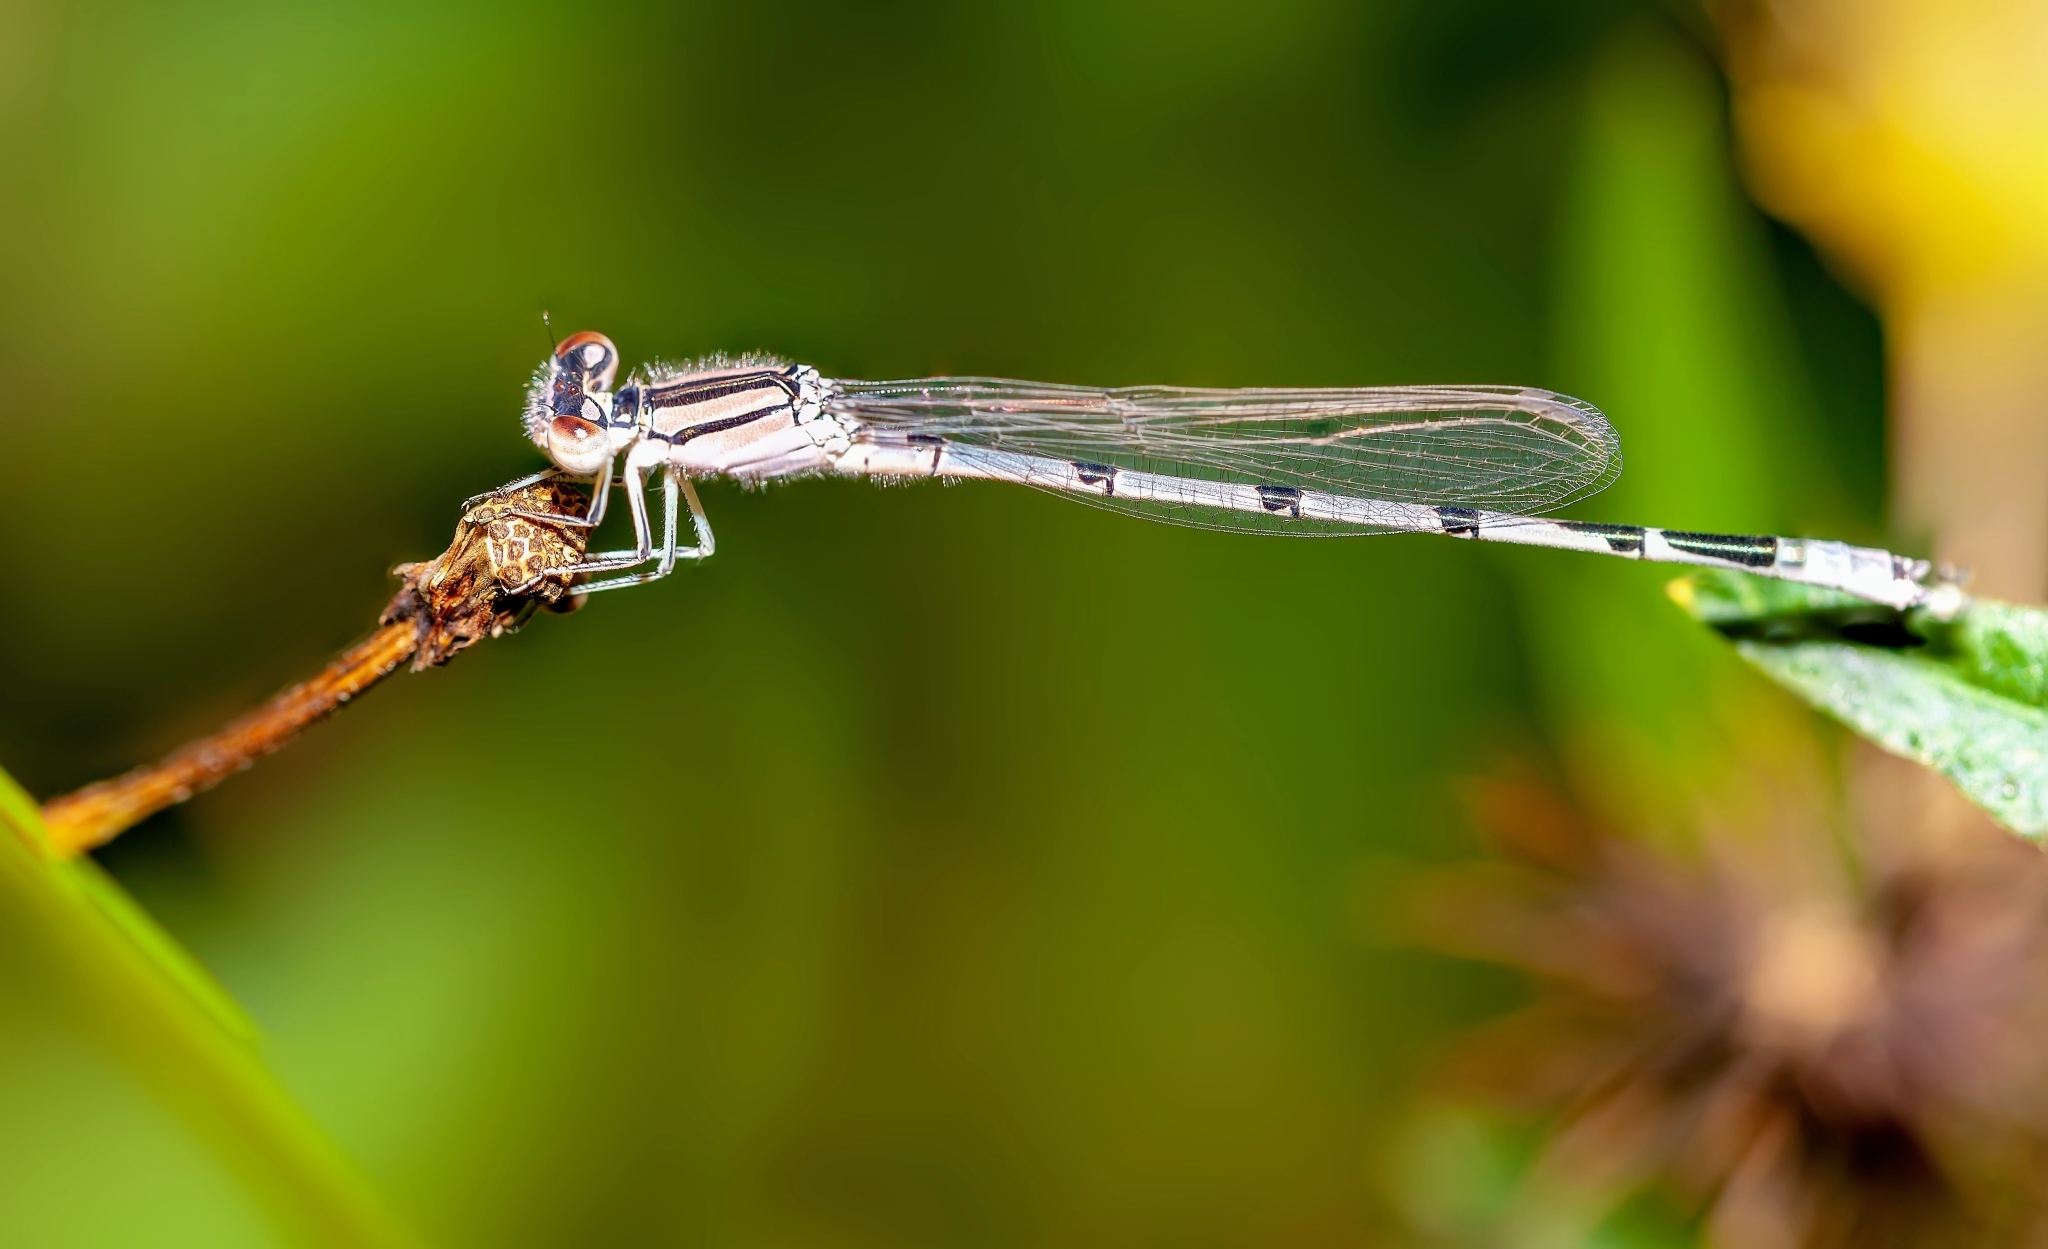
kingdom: Animalia
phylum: Arthropoda
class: Insecta
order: Odonata
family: Coenagrionidae
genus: Enallagma
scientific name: Enallagma civile
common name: Damselfly
